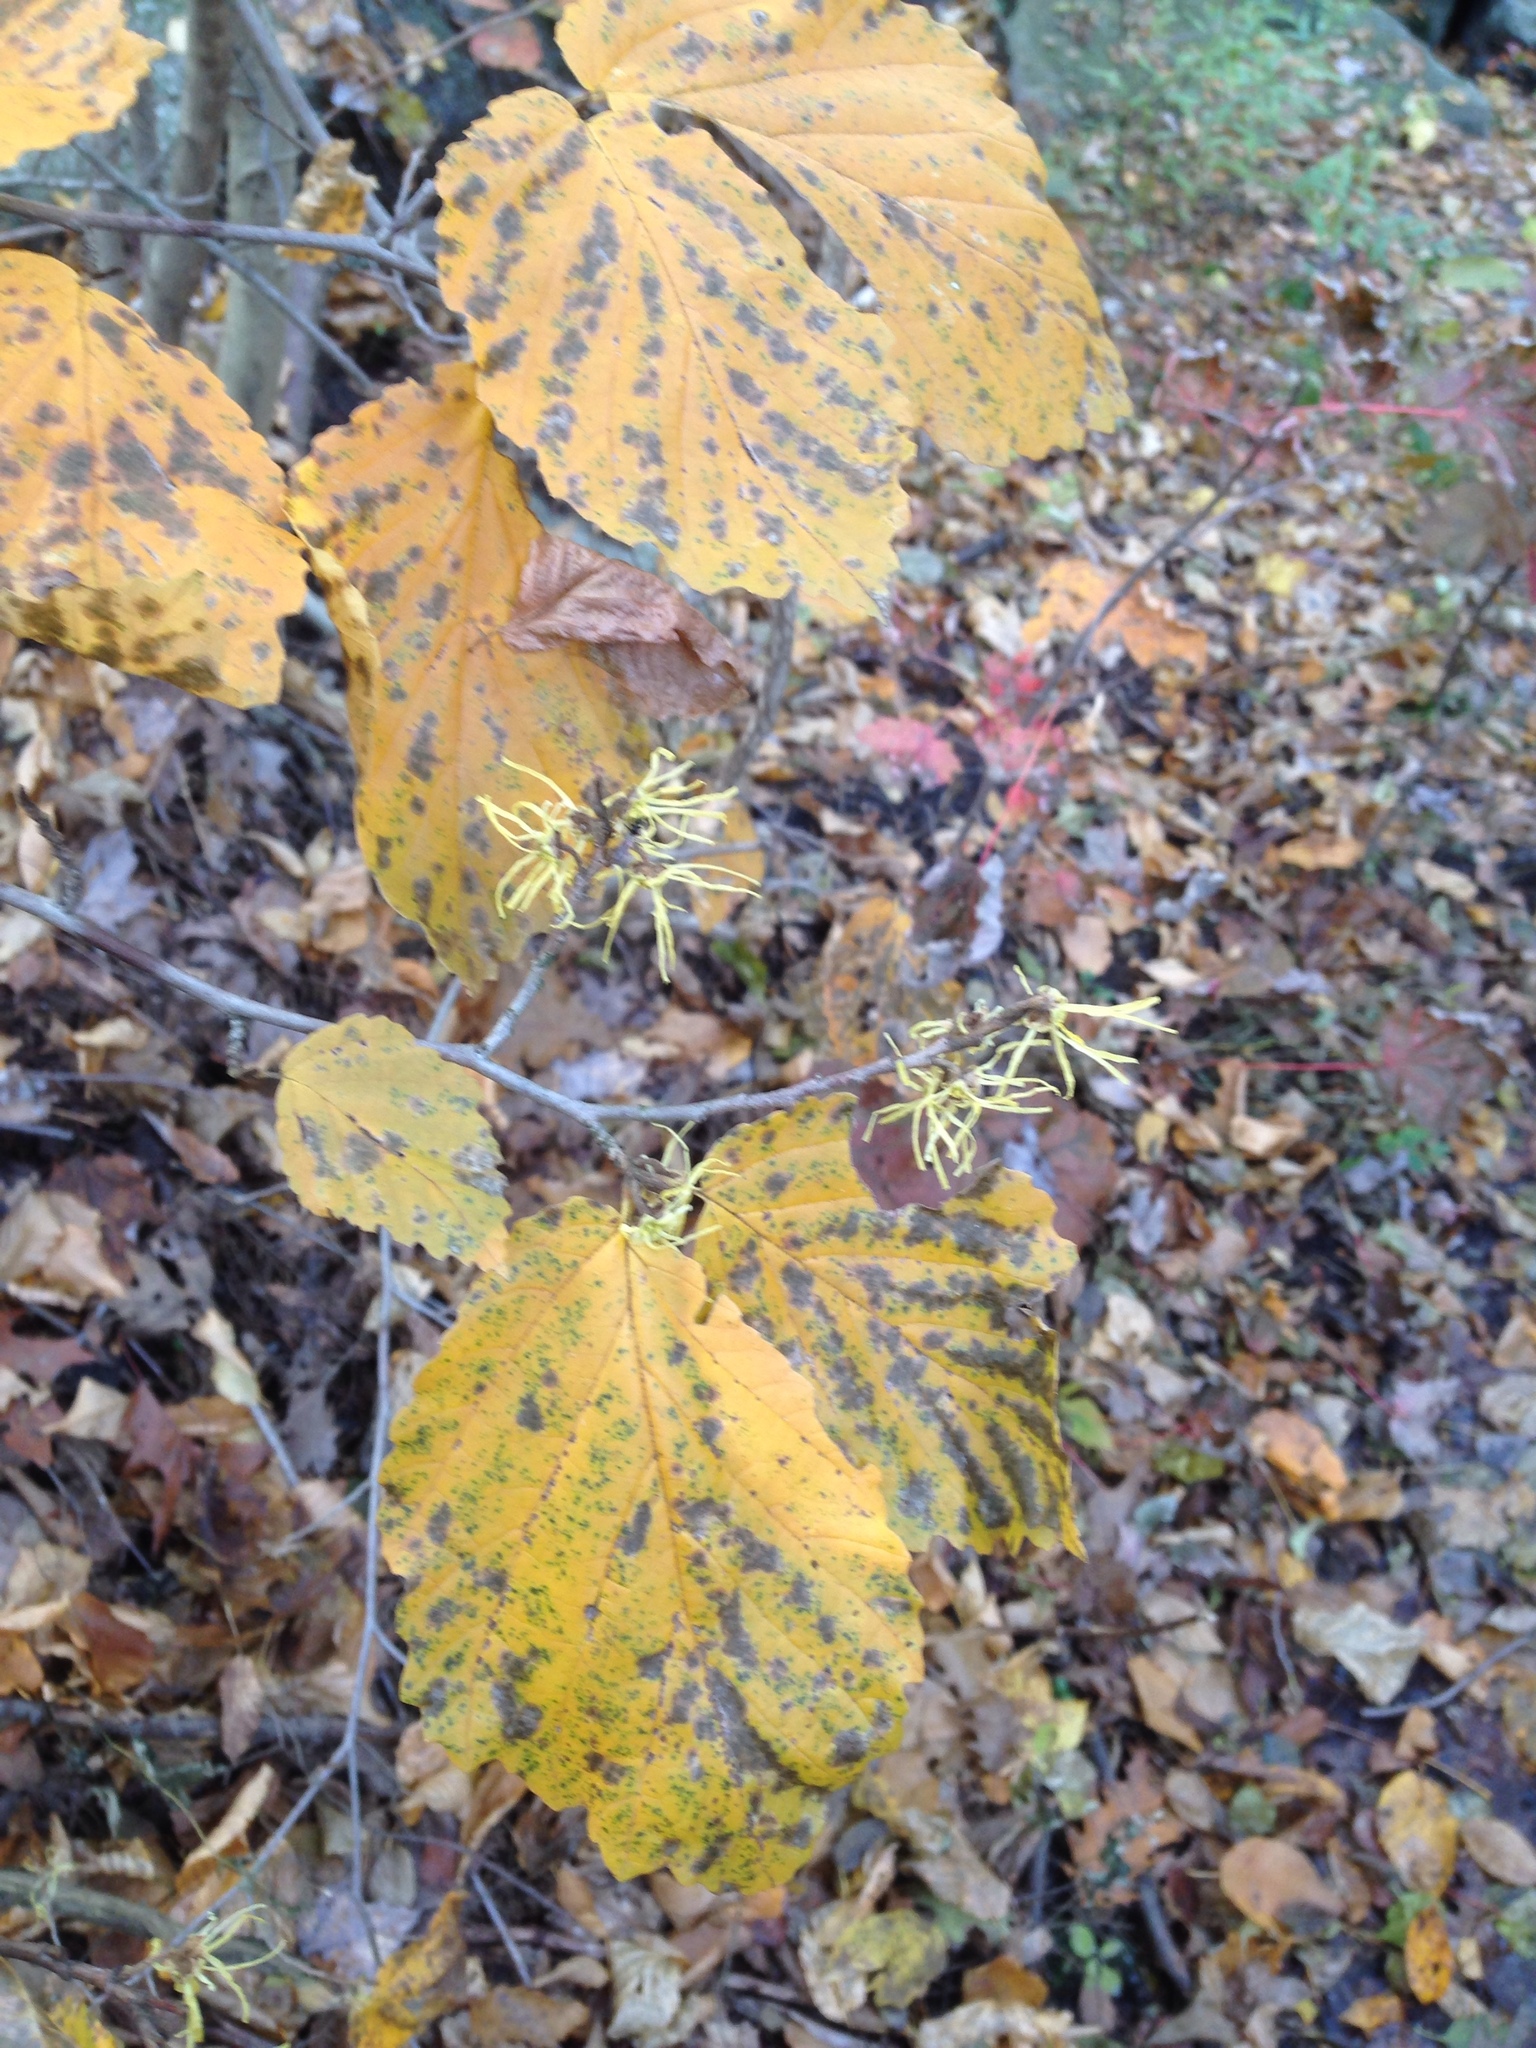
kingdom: Plantae
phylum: Tracheophyta
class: Magnoliopsida
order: Saxifragales
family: Hamamelidaceae
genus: Hamamelis
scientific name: Hamamelis virginiana
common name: Witch-hazel
